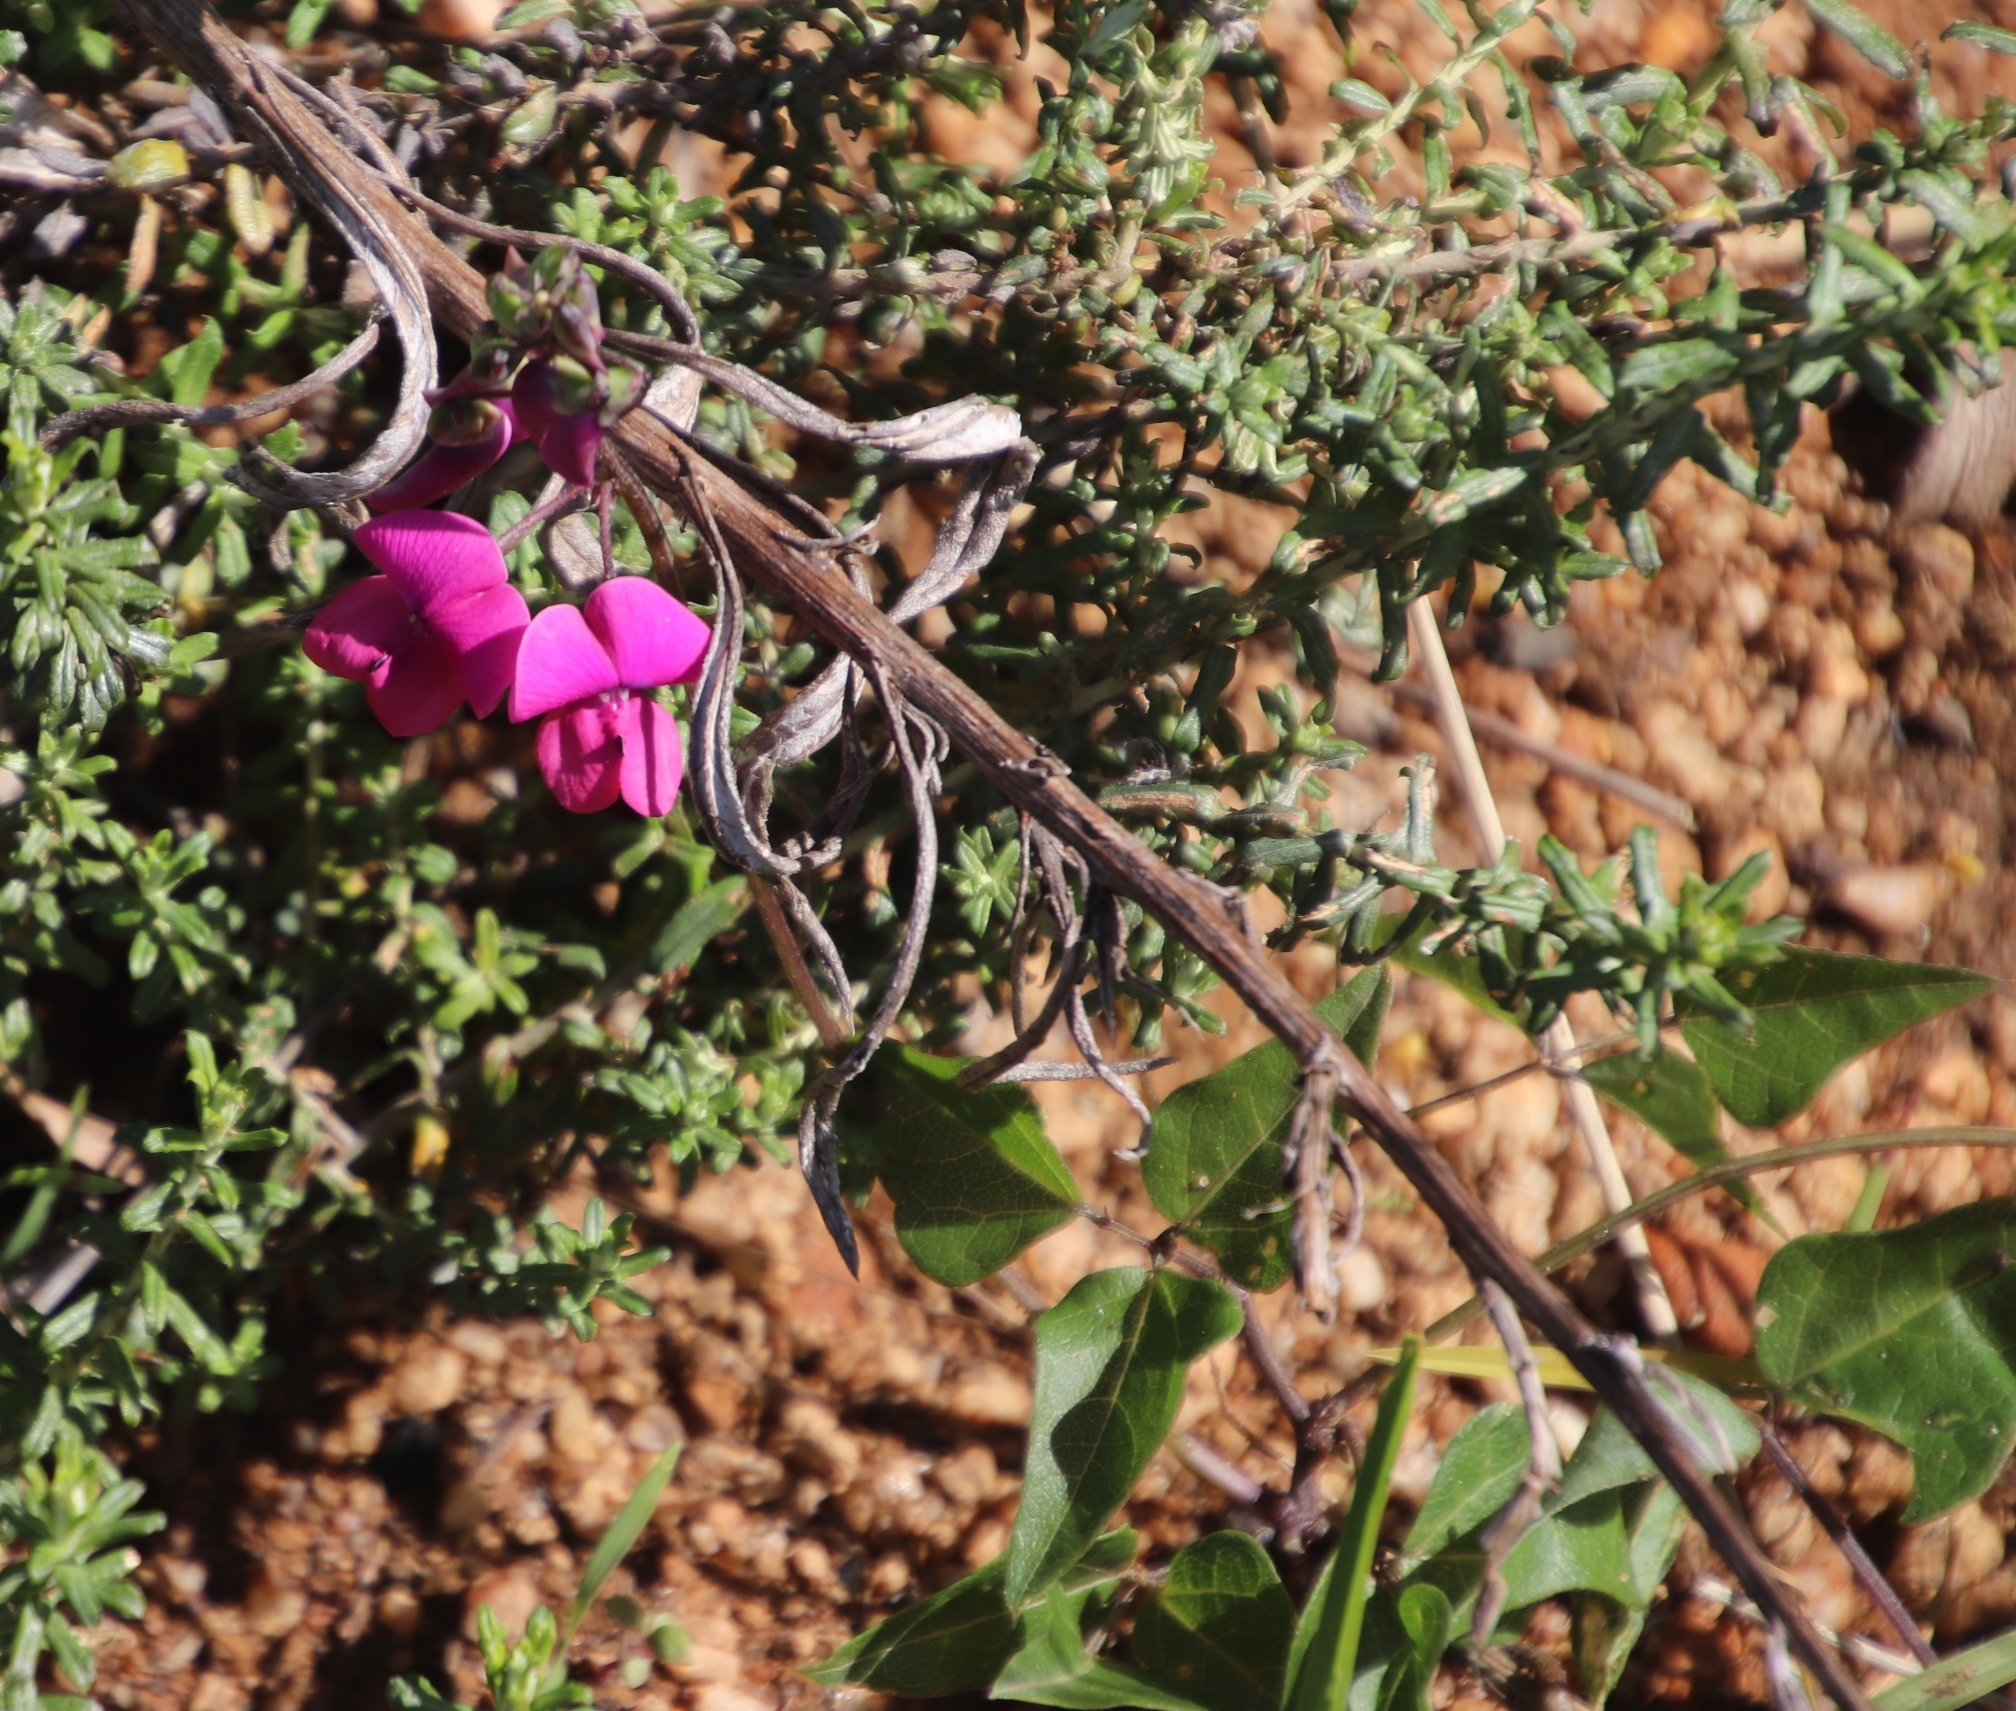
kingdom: Plantae
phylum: Tracheophyta
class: Magnoliopsida
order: Fabales
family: Fabaceae
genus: Dipogon
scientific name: Dipogon lignosus
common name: Okie bean
